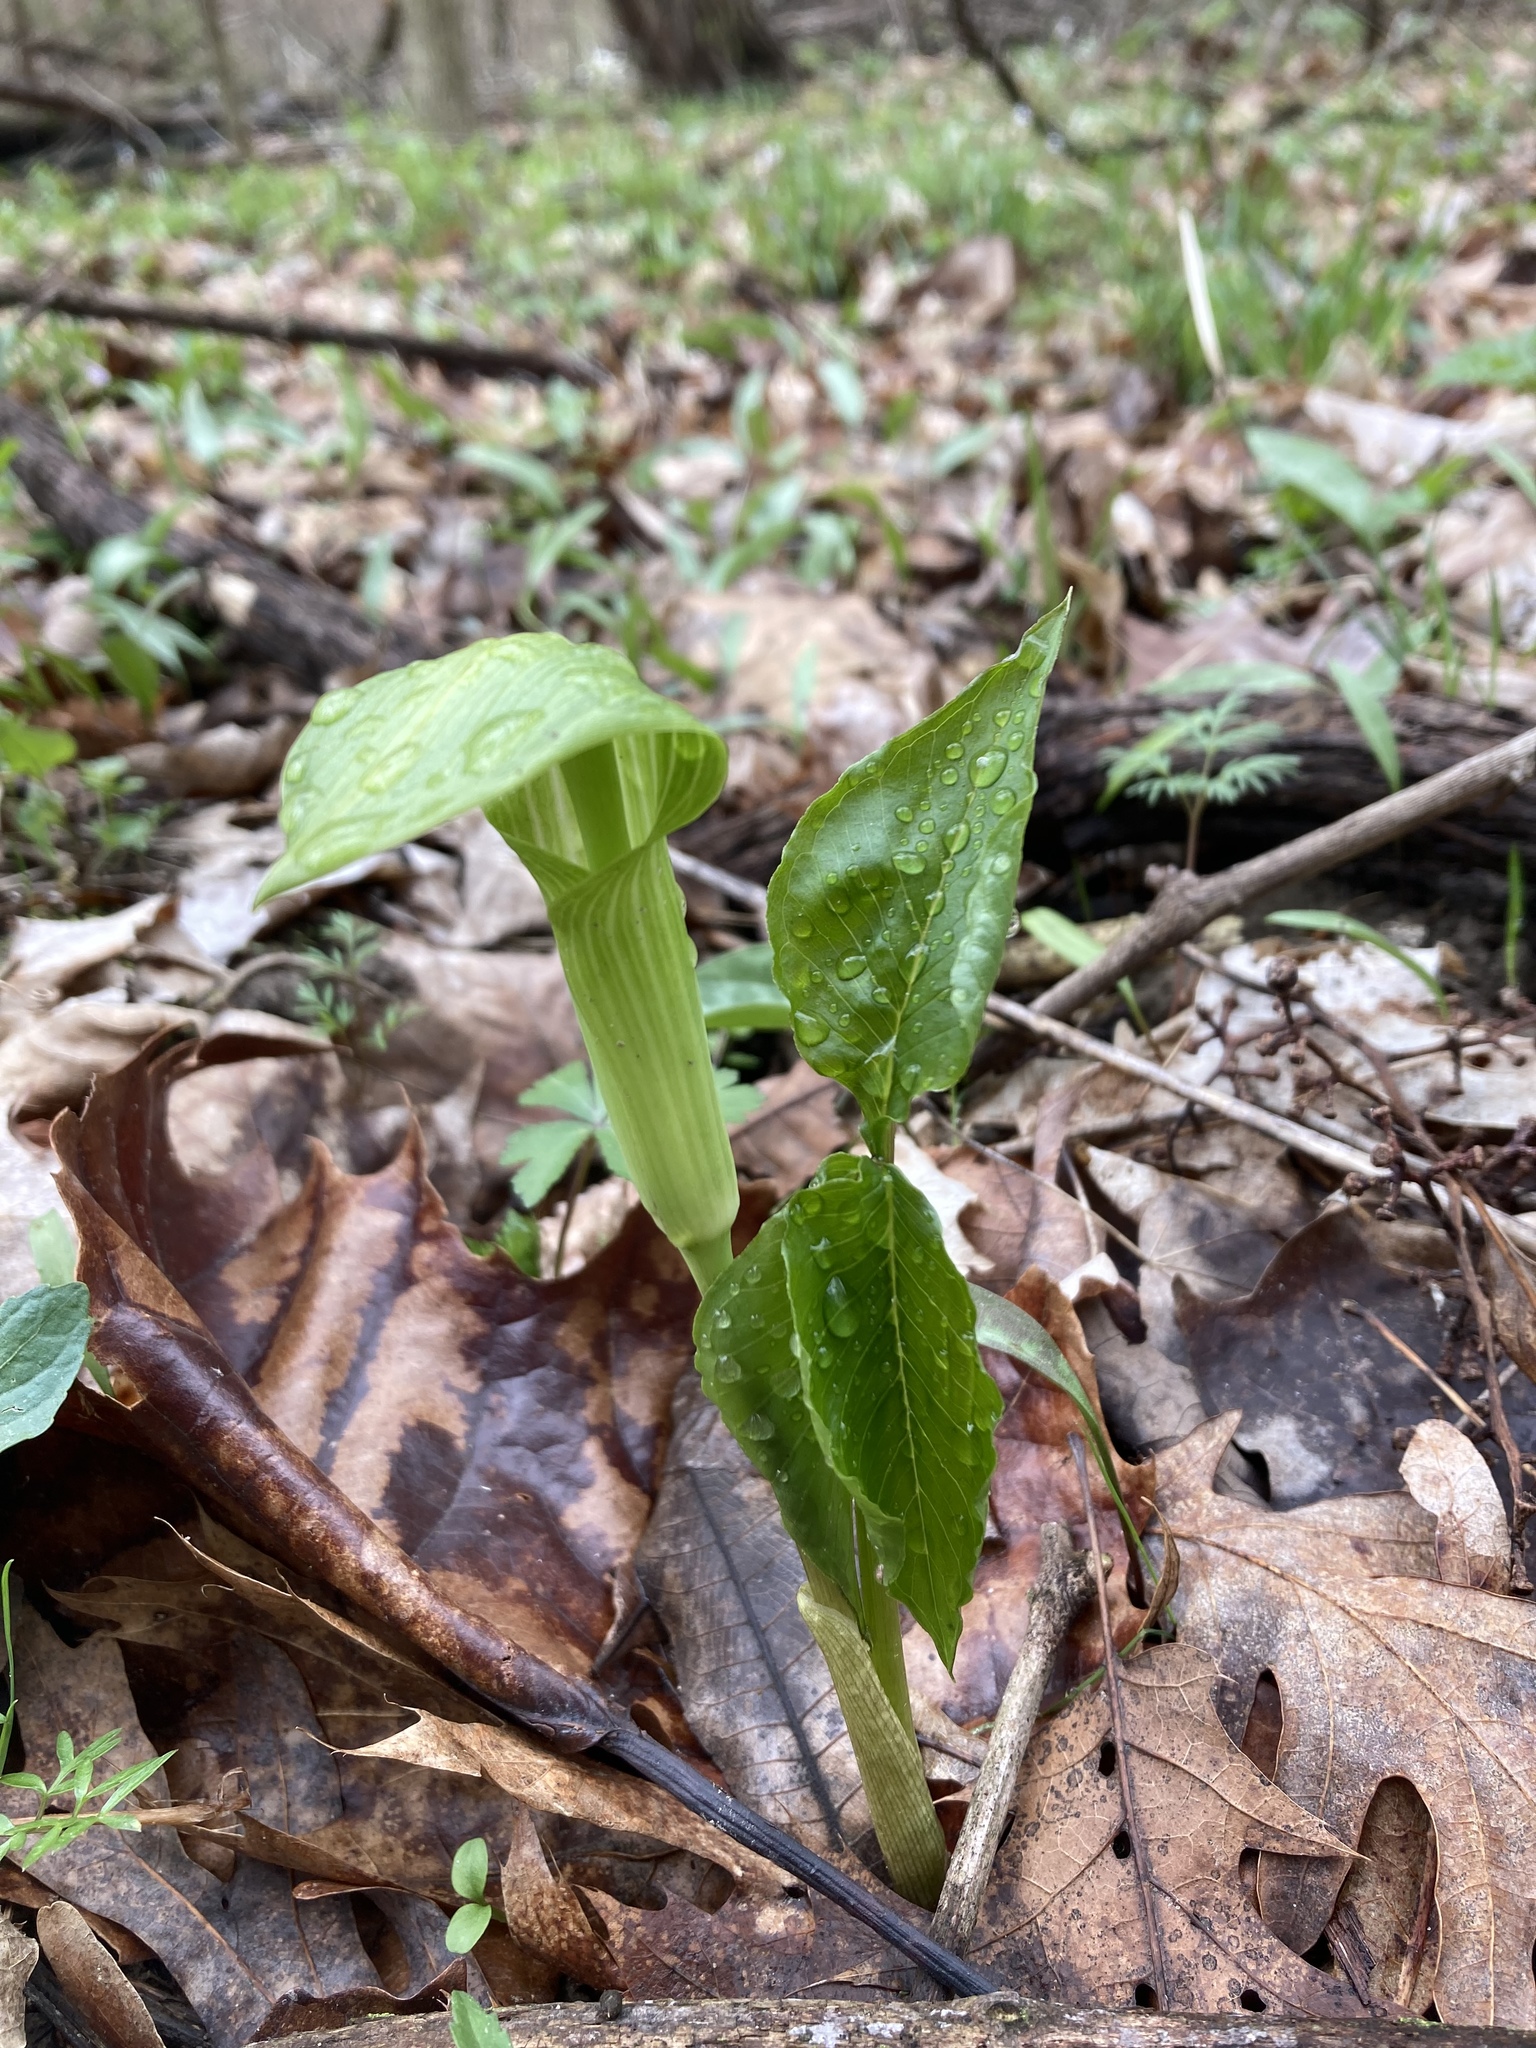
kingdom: Plantae
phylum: Tracheophyta
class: Liliopsida
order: Alismatales
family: Araceae
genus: Arisaema
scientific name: Arisaema triphyllum
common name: Jack-in-the-pulpit
